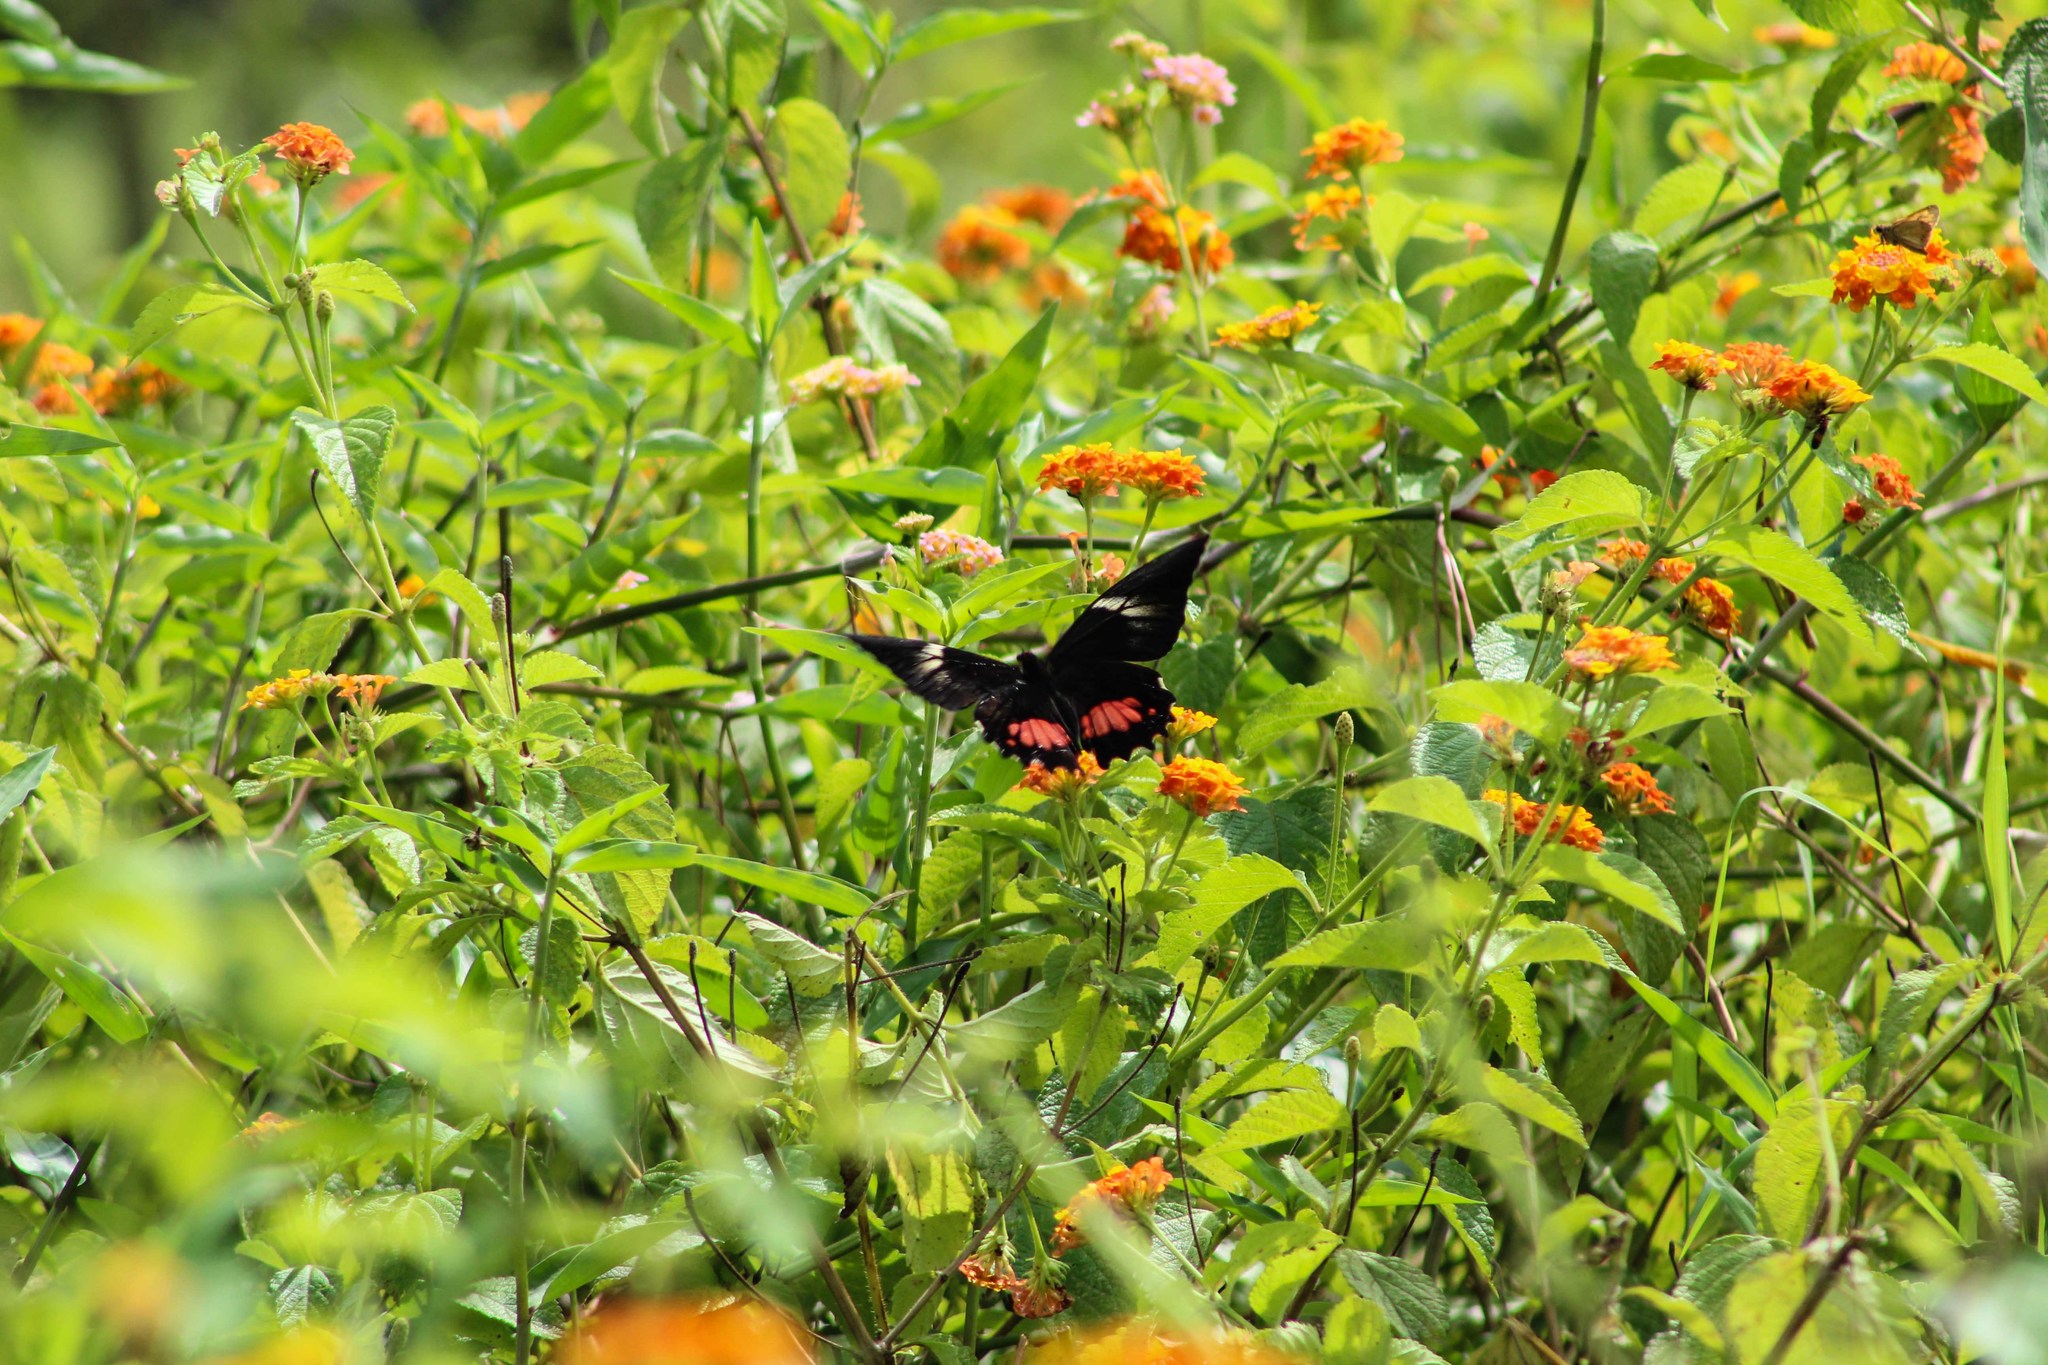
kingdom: Animalia
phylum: Arthropoda
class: Insecta
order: Lepidoptera
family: Papilionidae
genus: Papilio
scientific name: Papilio anchisiades
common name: Idaes swallowtail
